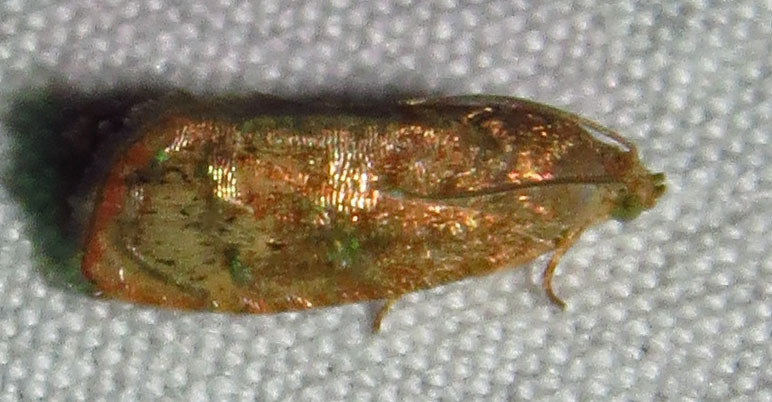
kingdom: Animalia
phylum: Arthropoda
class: Insecta
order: Lepidoptera
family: Tortricidae
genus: Cydia
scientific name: Cydia latiferreana
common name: Filbertworm moth
